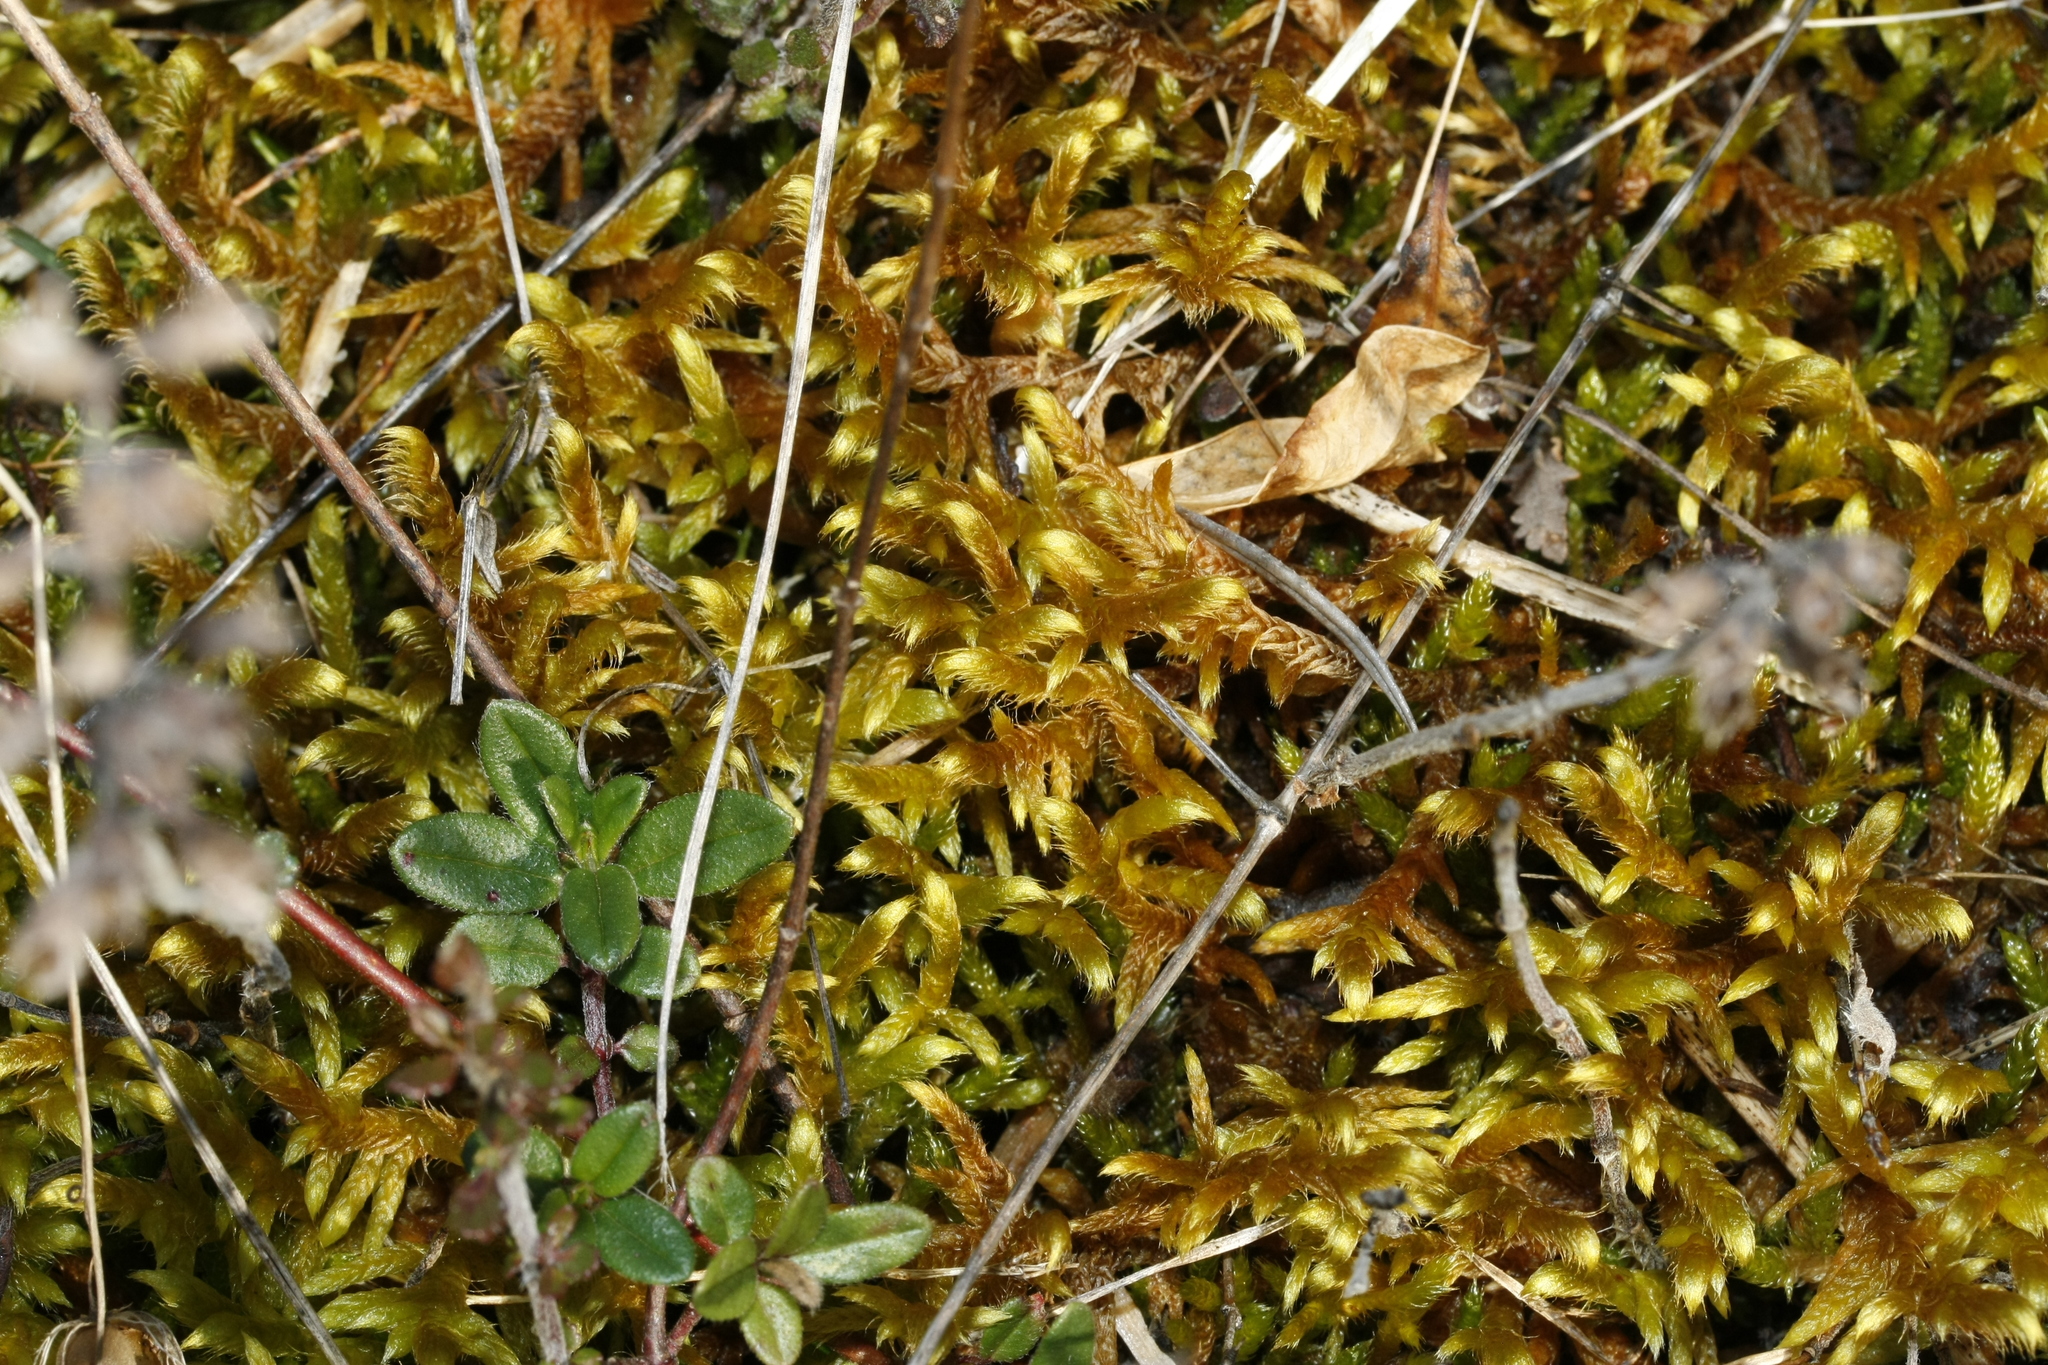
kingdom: Plantae
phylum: Bryophyta
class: Bryopsida
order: Hypnales
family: Rhytidiaceae
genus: Rhytidium
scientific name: Rhytidium rugosum
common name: Wrinkle-leaved moss
